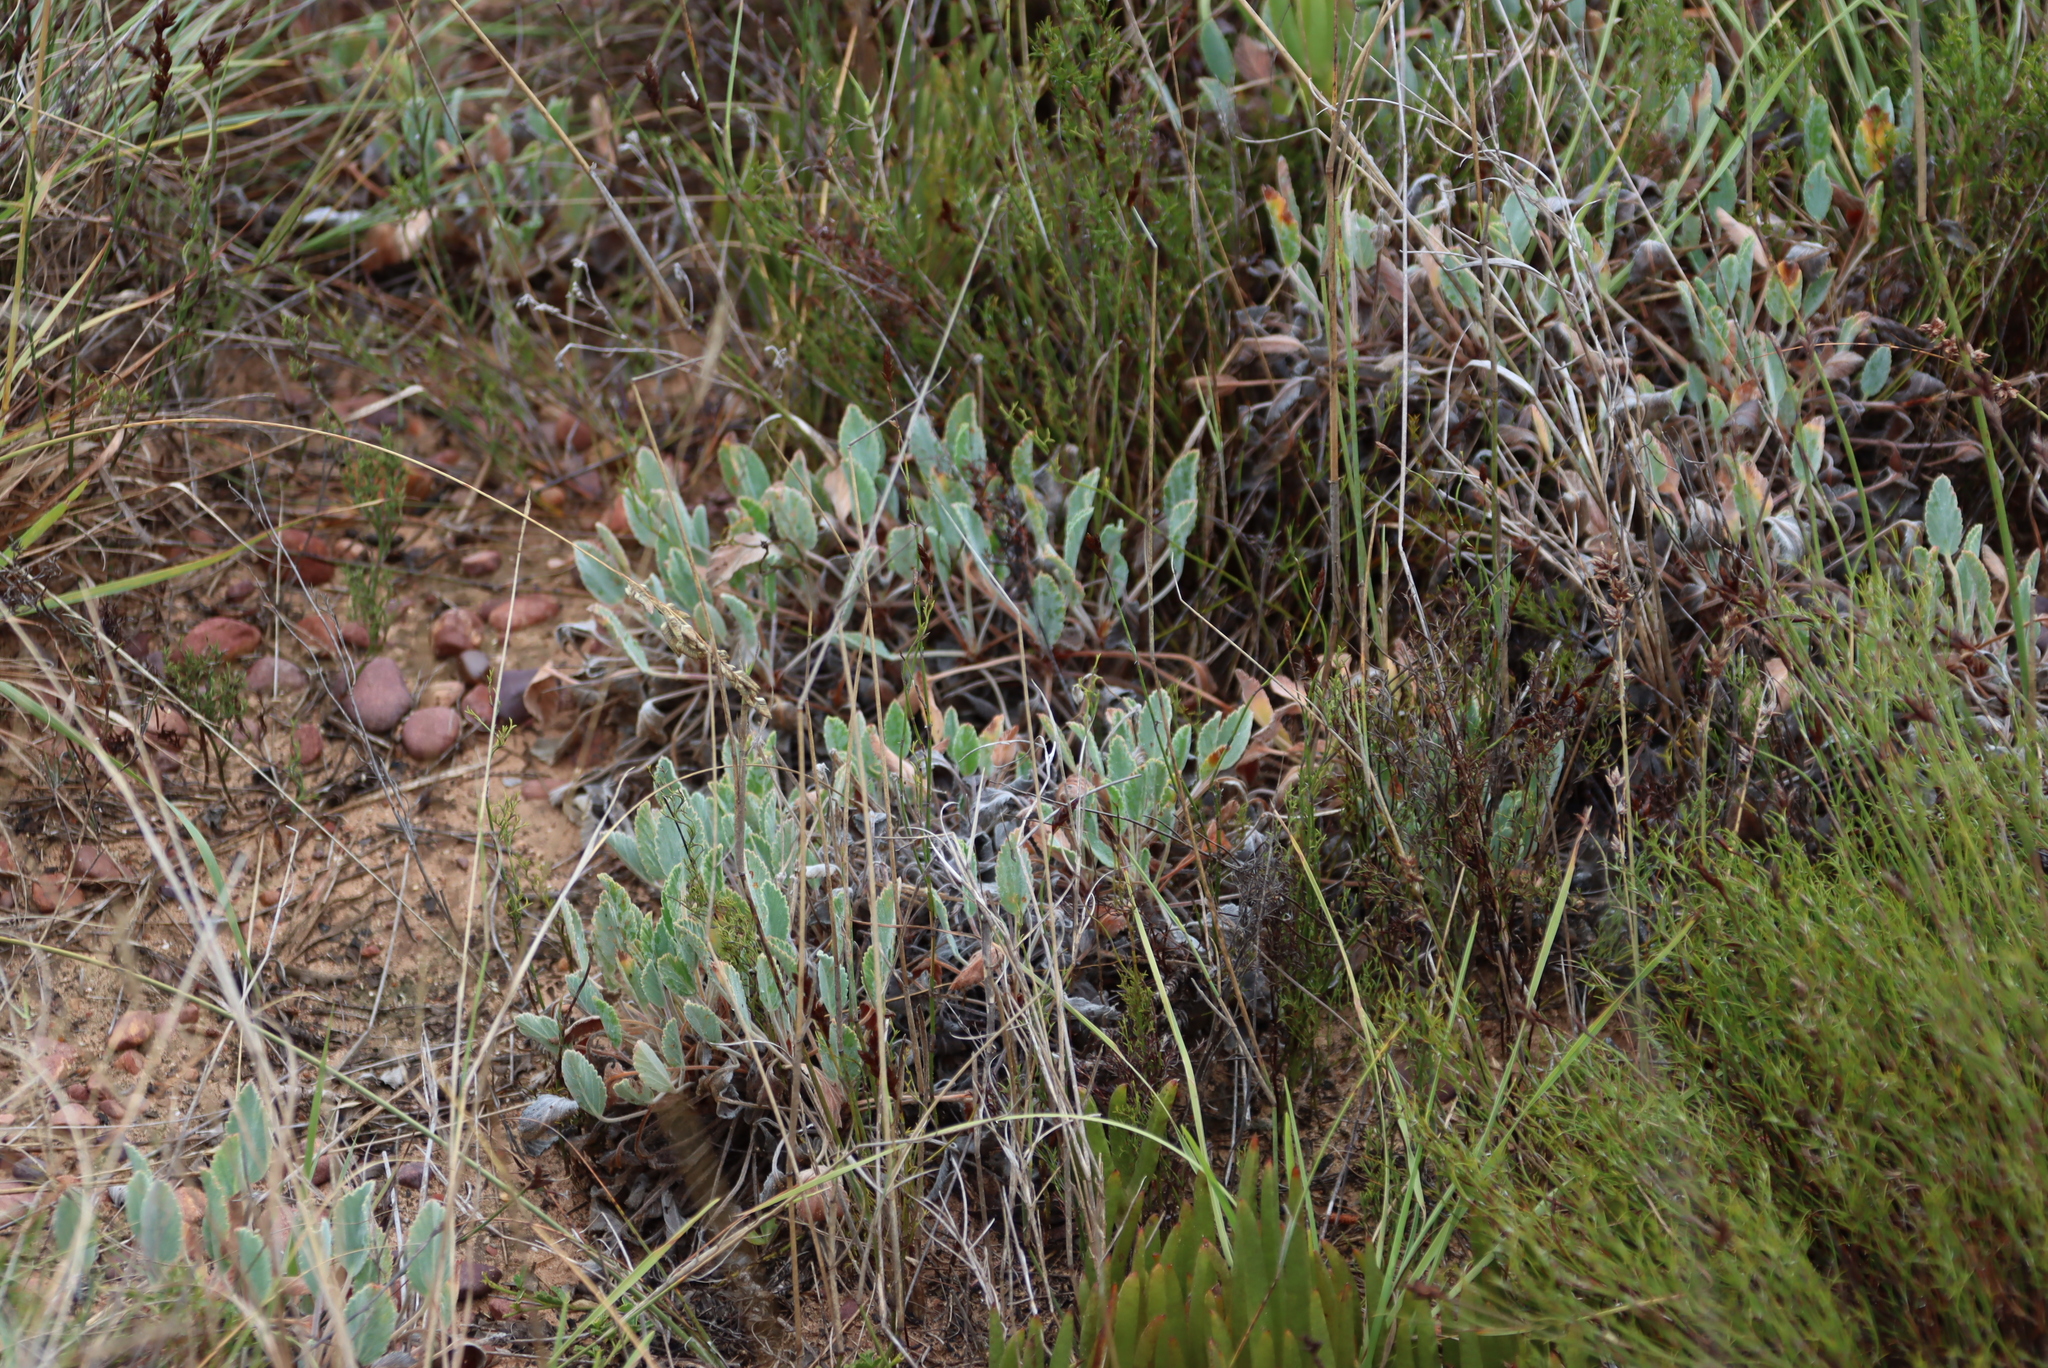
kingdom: Plantae
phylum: Tracheophyta
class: Magnoliopsida
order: Geraniales
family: Geraniaceae
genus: Pelargonium
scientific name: Pelargonium ovale
